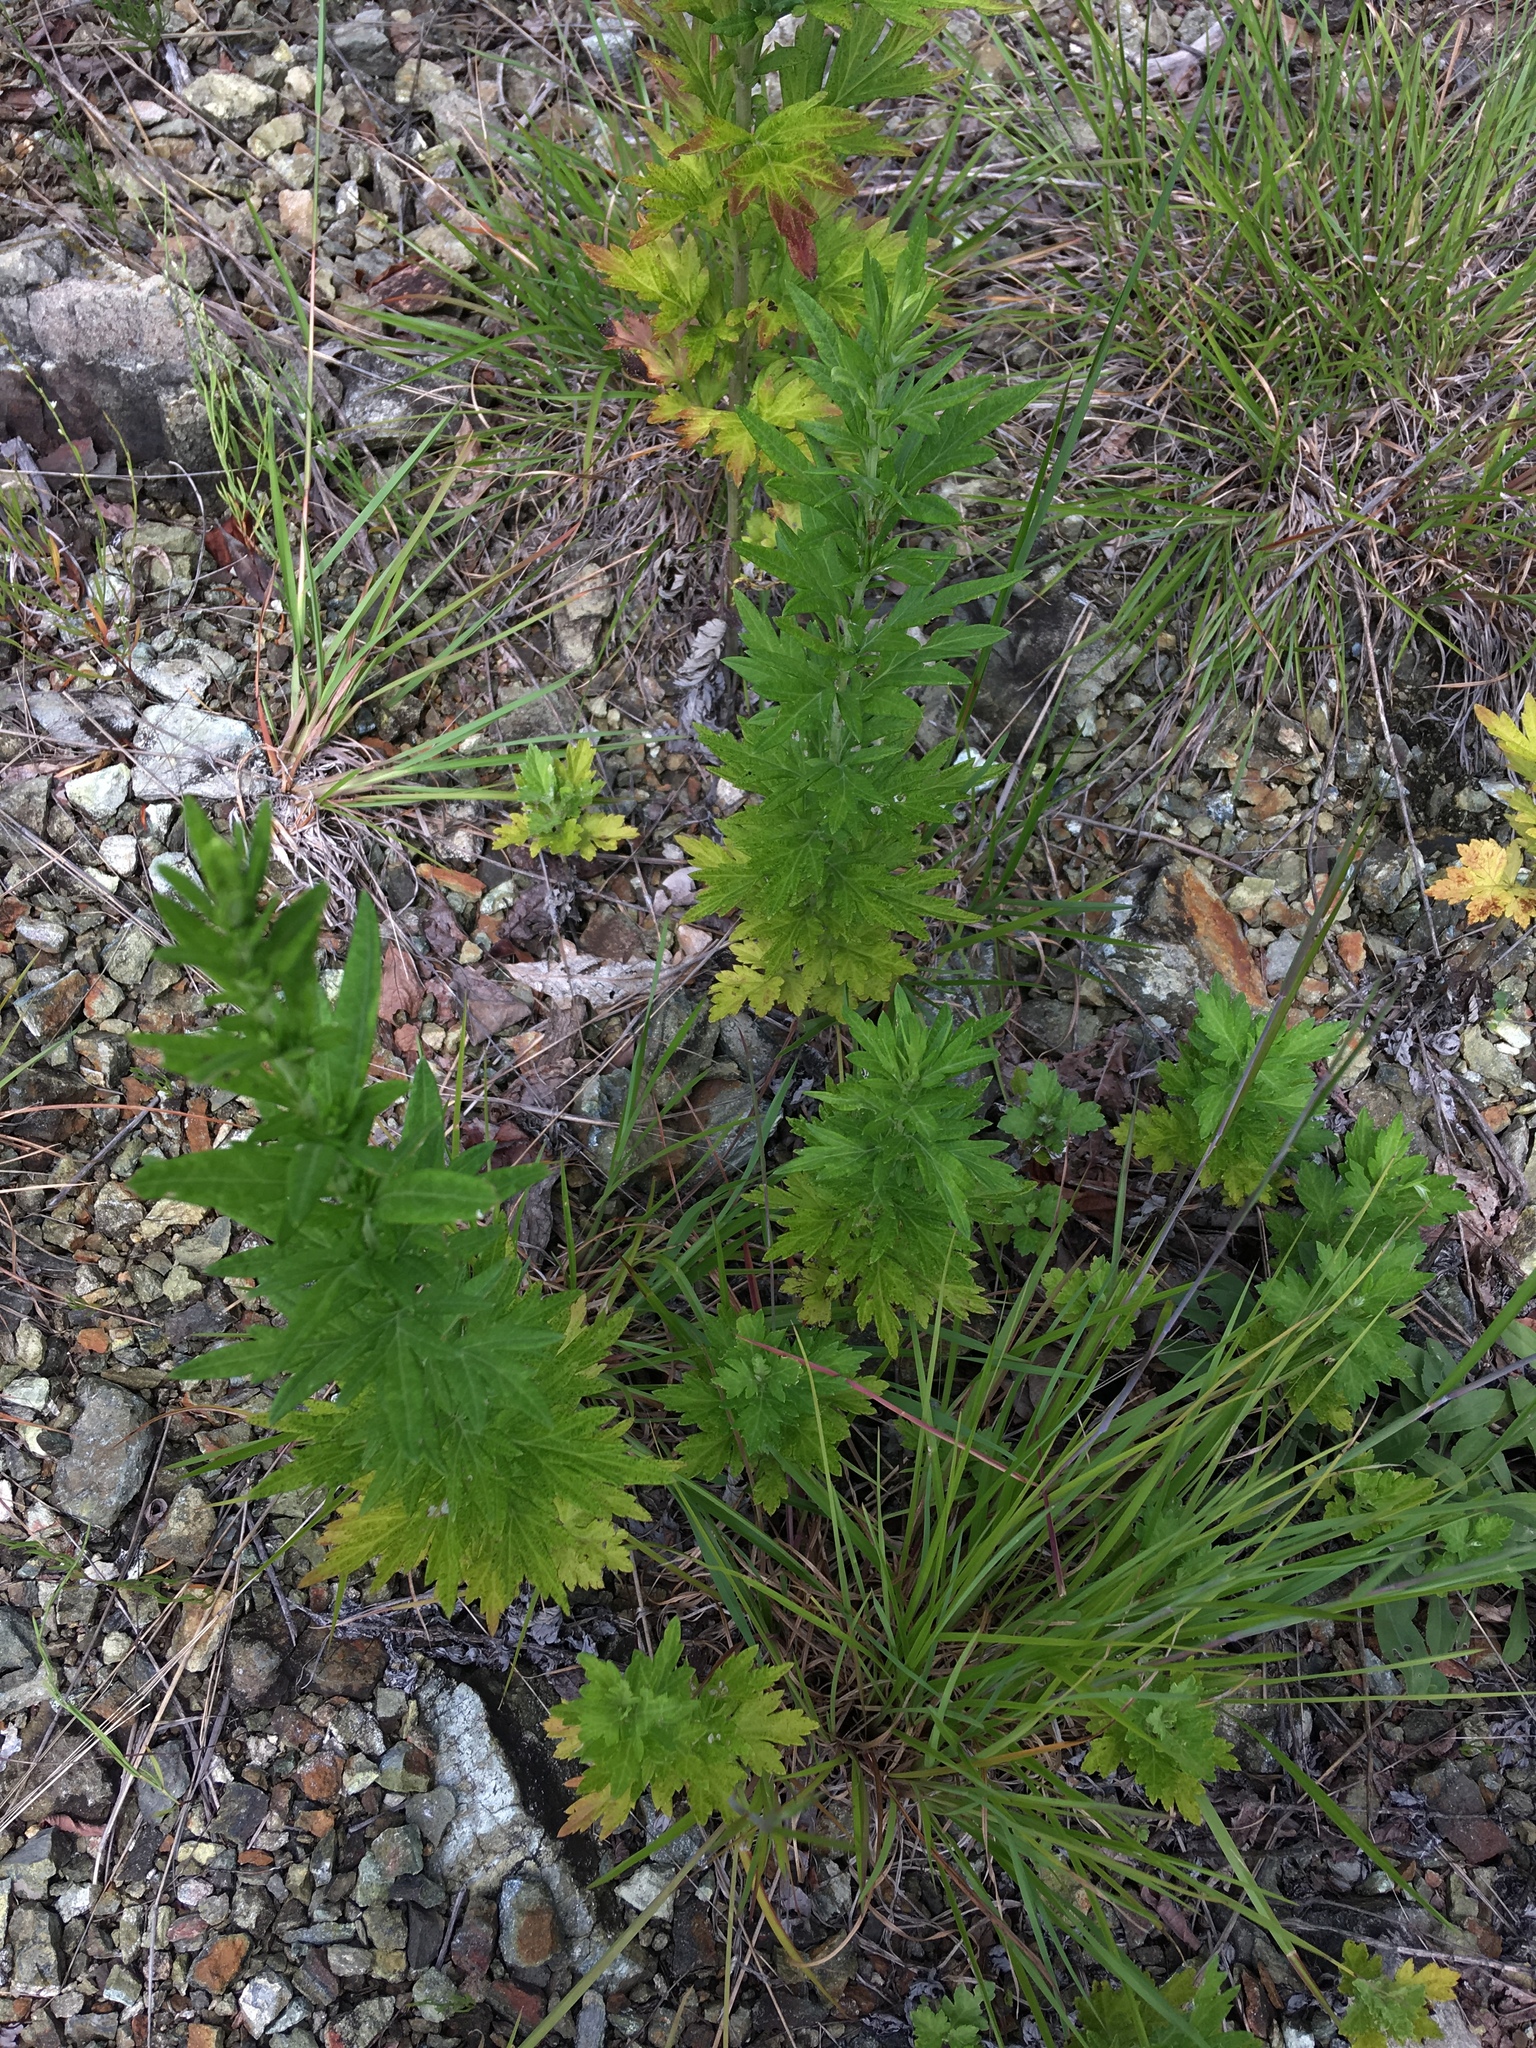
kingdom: Plantae
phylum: Tracheophyta
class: Magnoliopsida
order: Asterales
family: Asteraceae
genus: Artemisia
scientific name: Artemisia vulgaris
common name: Mugwort
